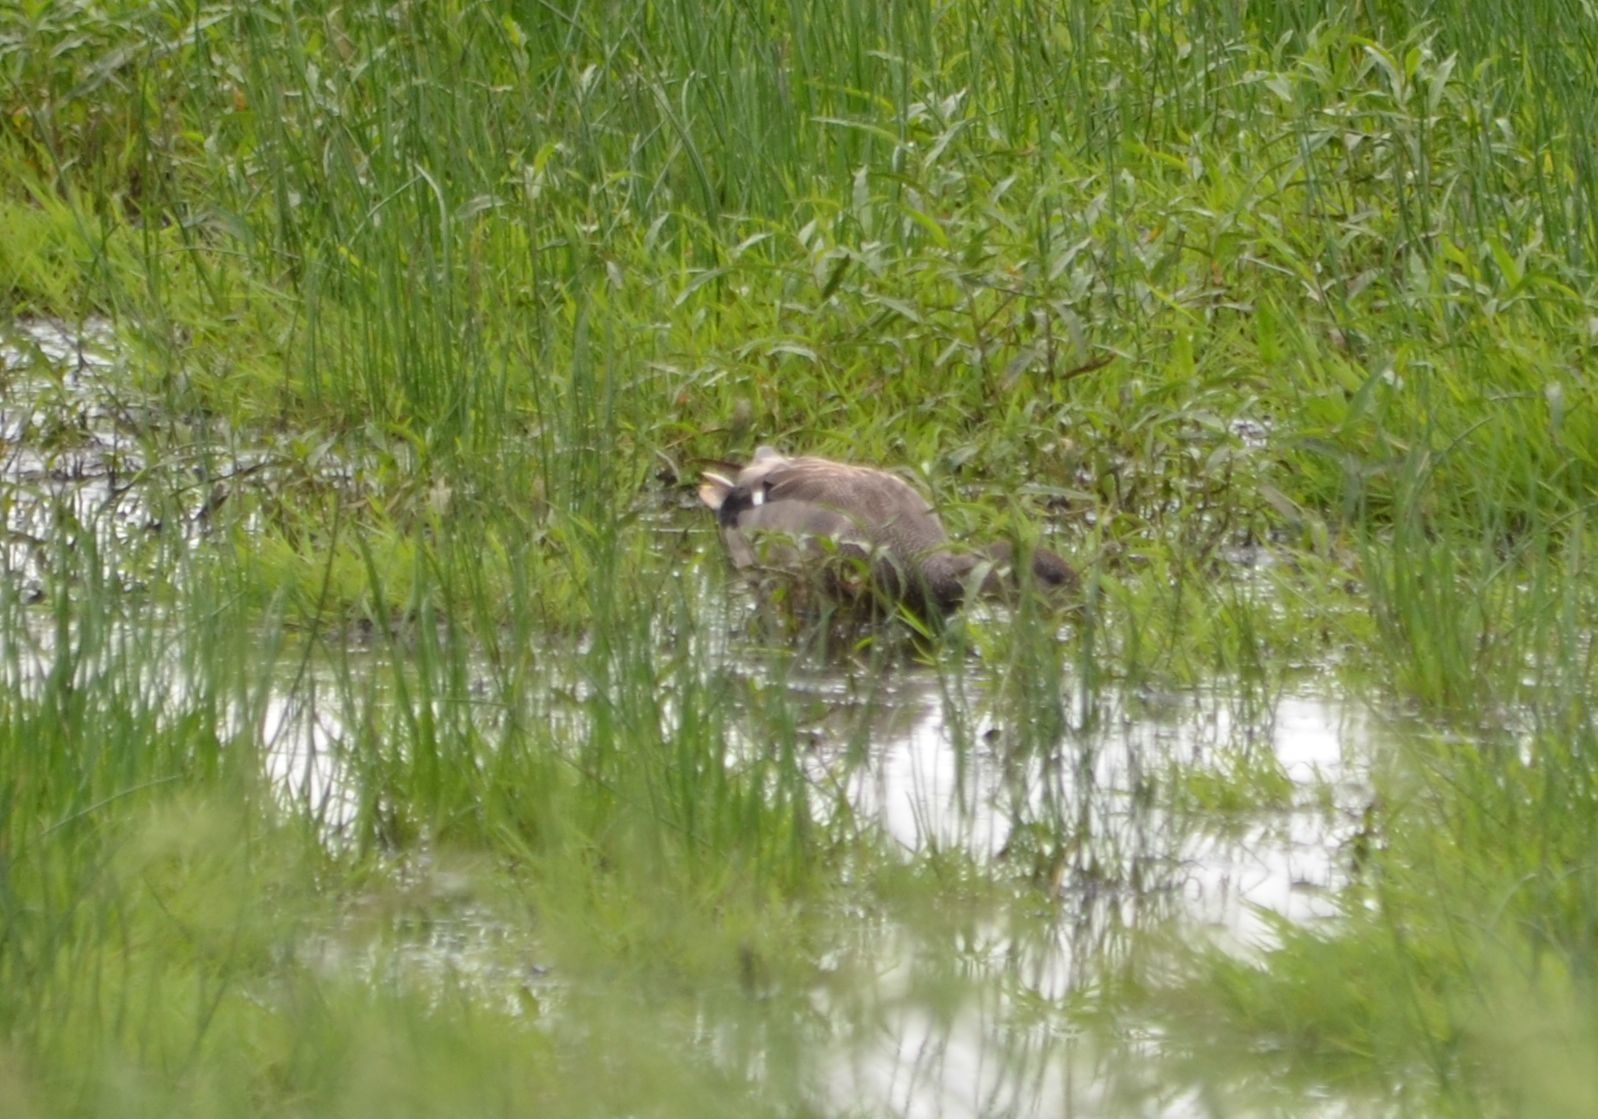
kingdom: Animalia
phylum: Chordata
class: Aves
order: Anseriformes
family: Anatidae
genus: Mareca
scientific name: Mareca strepera
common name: Gadwall
